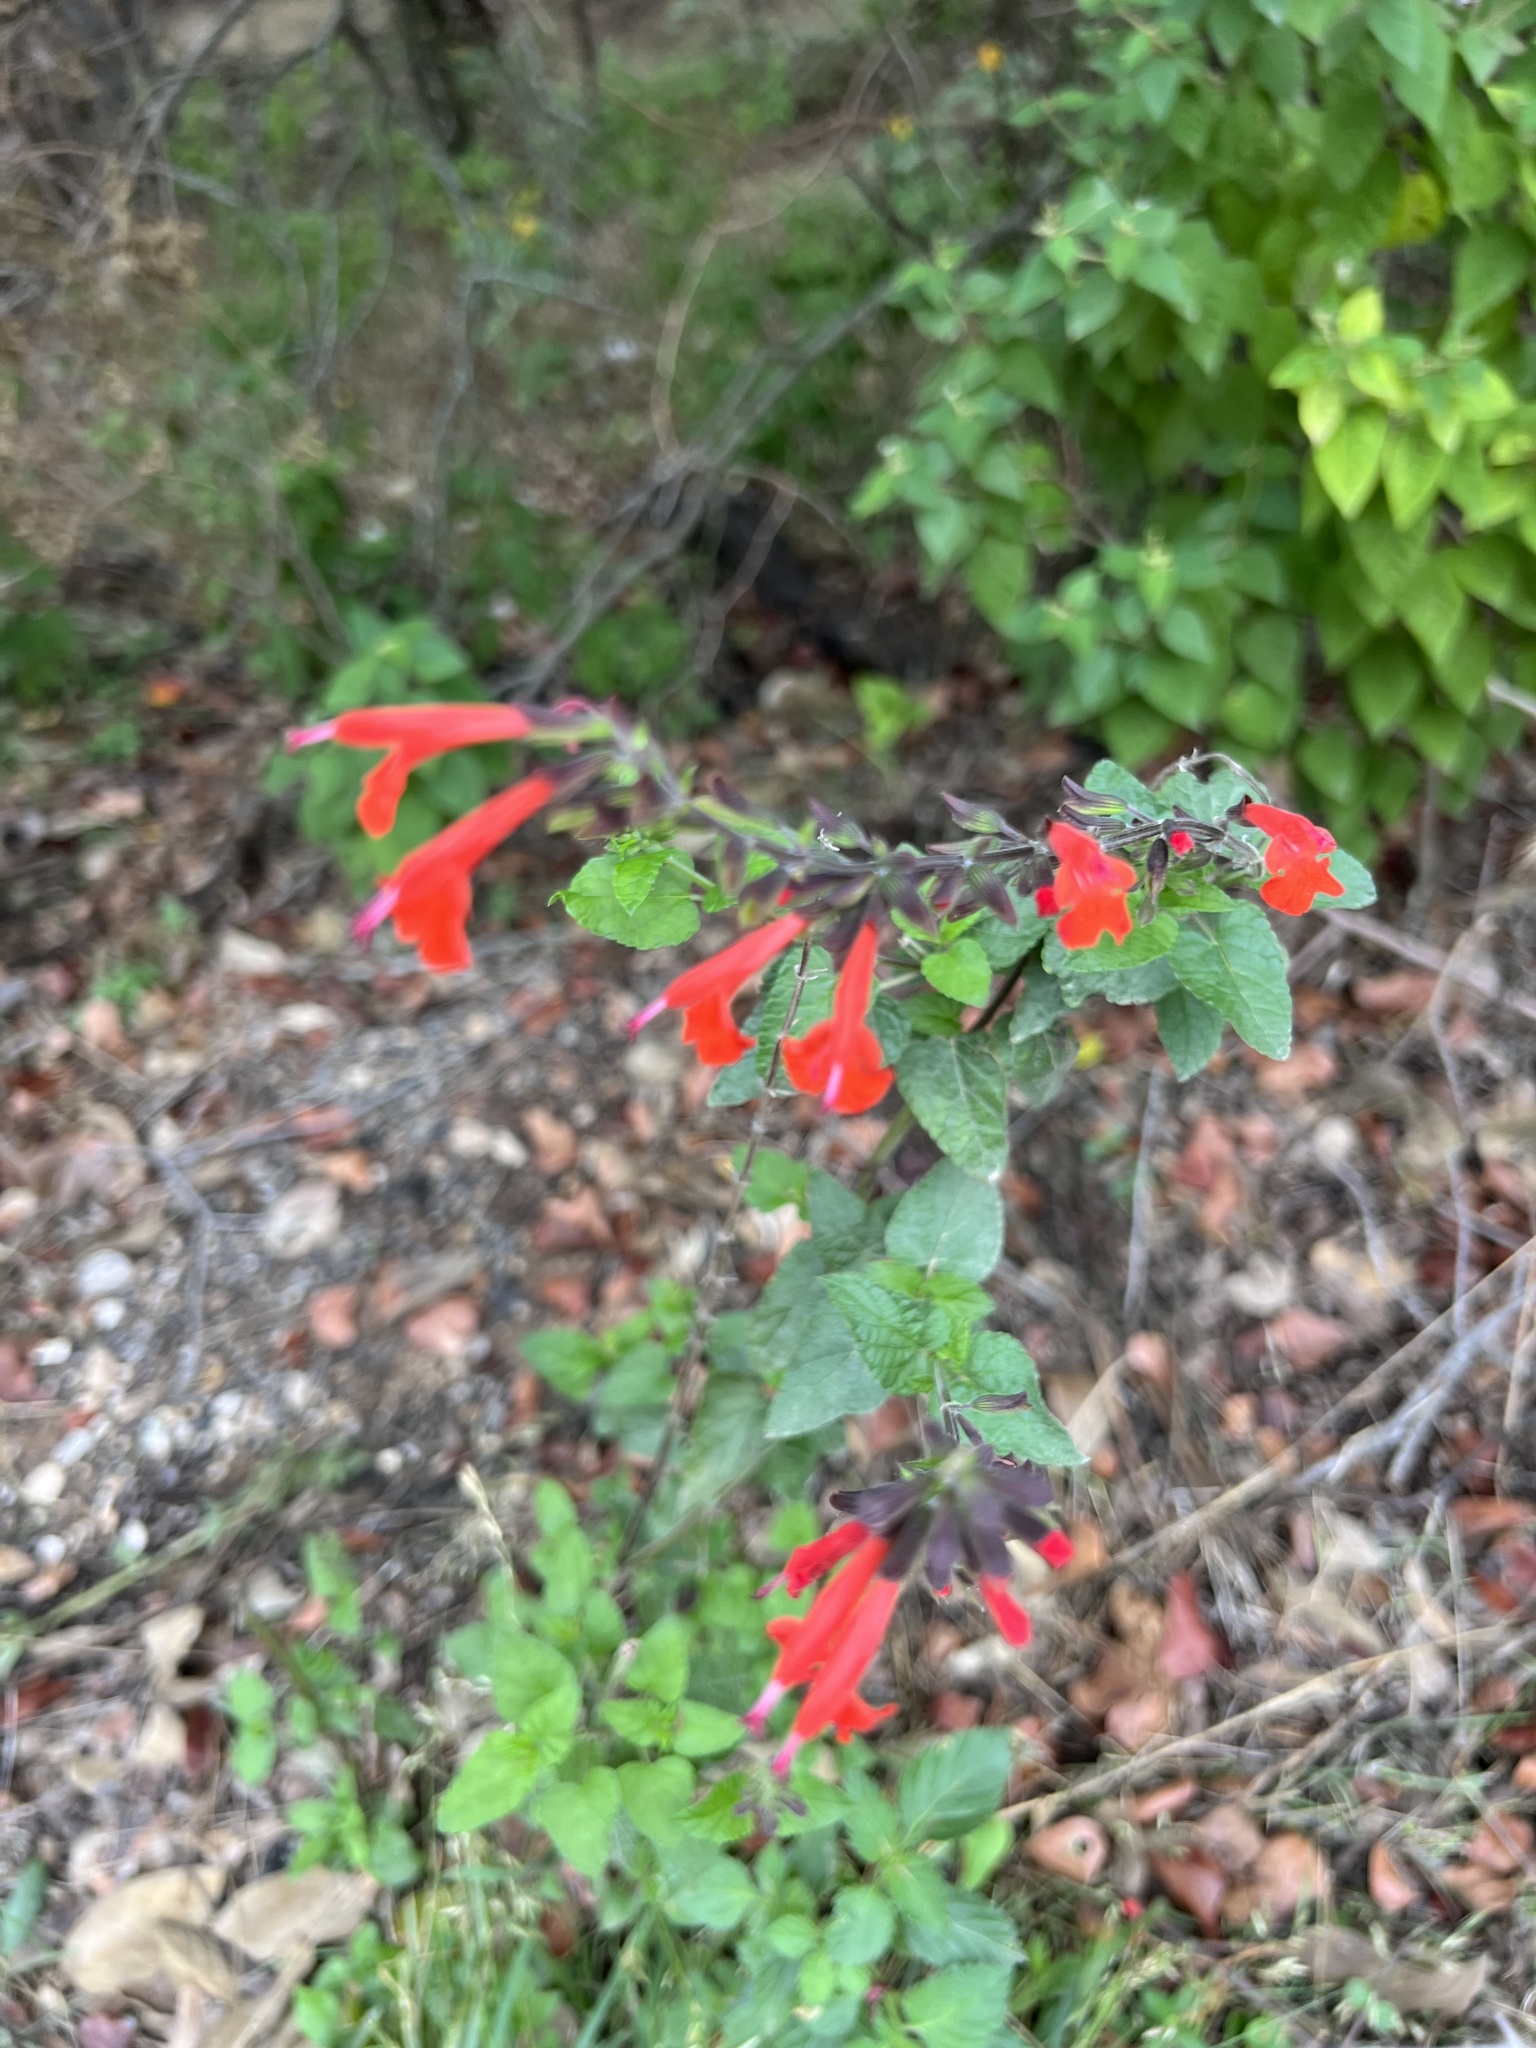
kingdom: Plantae
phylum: Tracheophyta
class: Magnoliopsida
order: Lamiales
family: Lamiaceae
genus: Salvia
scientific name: Salvia coccinea
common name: Blood sage
